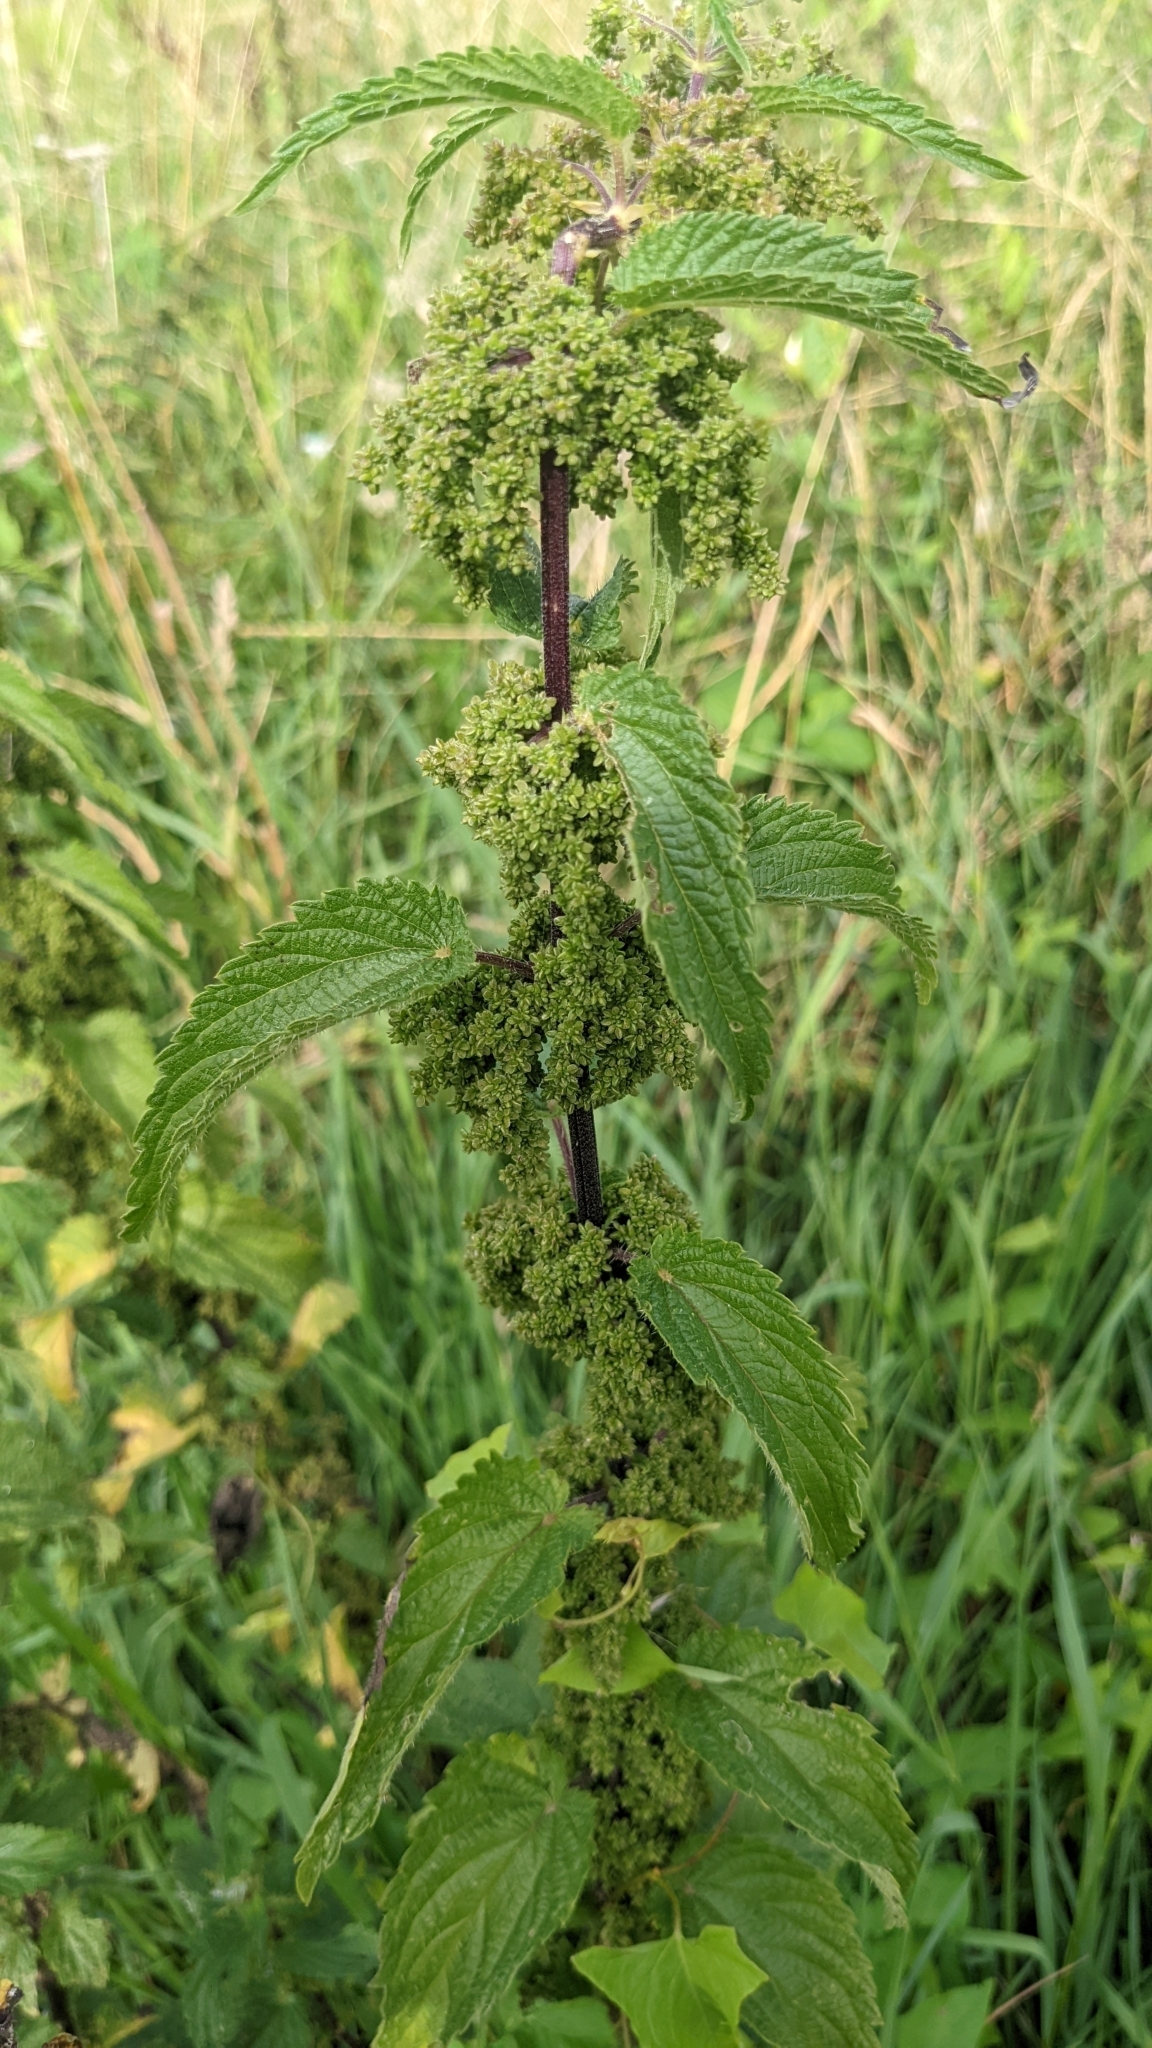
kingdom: Plantae
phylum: Tracheophyta
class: Magnoliopsida
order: Rosales
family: Urticaceae
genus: Urtica
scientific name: Urtica dioica
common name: Common nettle
